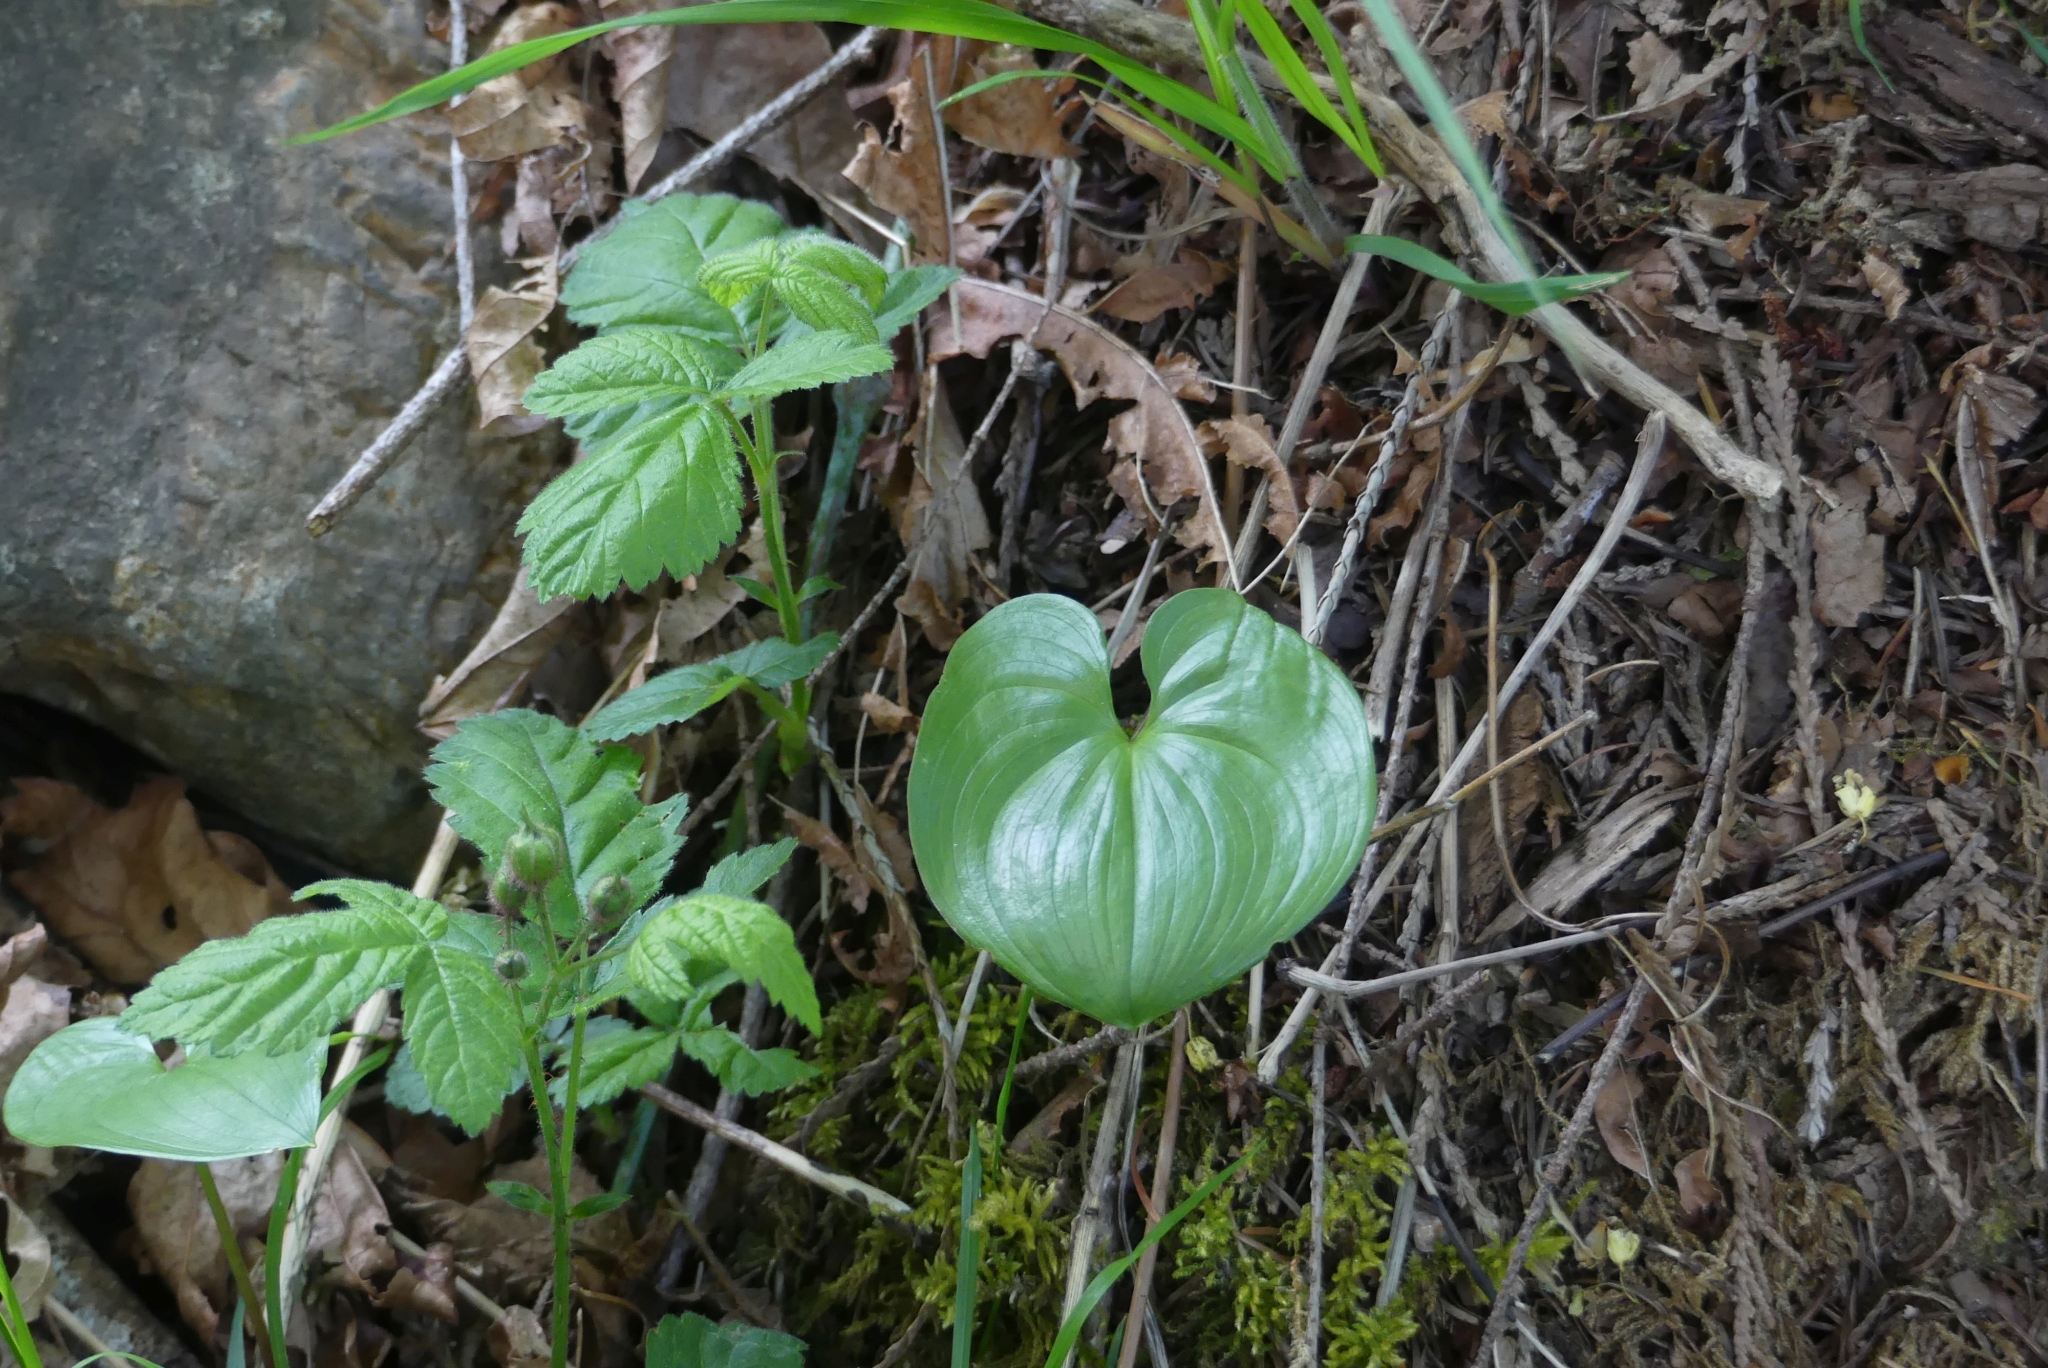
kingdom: Plantae
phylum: Tracheophyta
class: Liliopsida
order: Asparagales
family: Asparagaceae
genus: Maianthemum
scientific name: Maianthemum dilatatum
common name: False lily-of-the-valley
